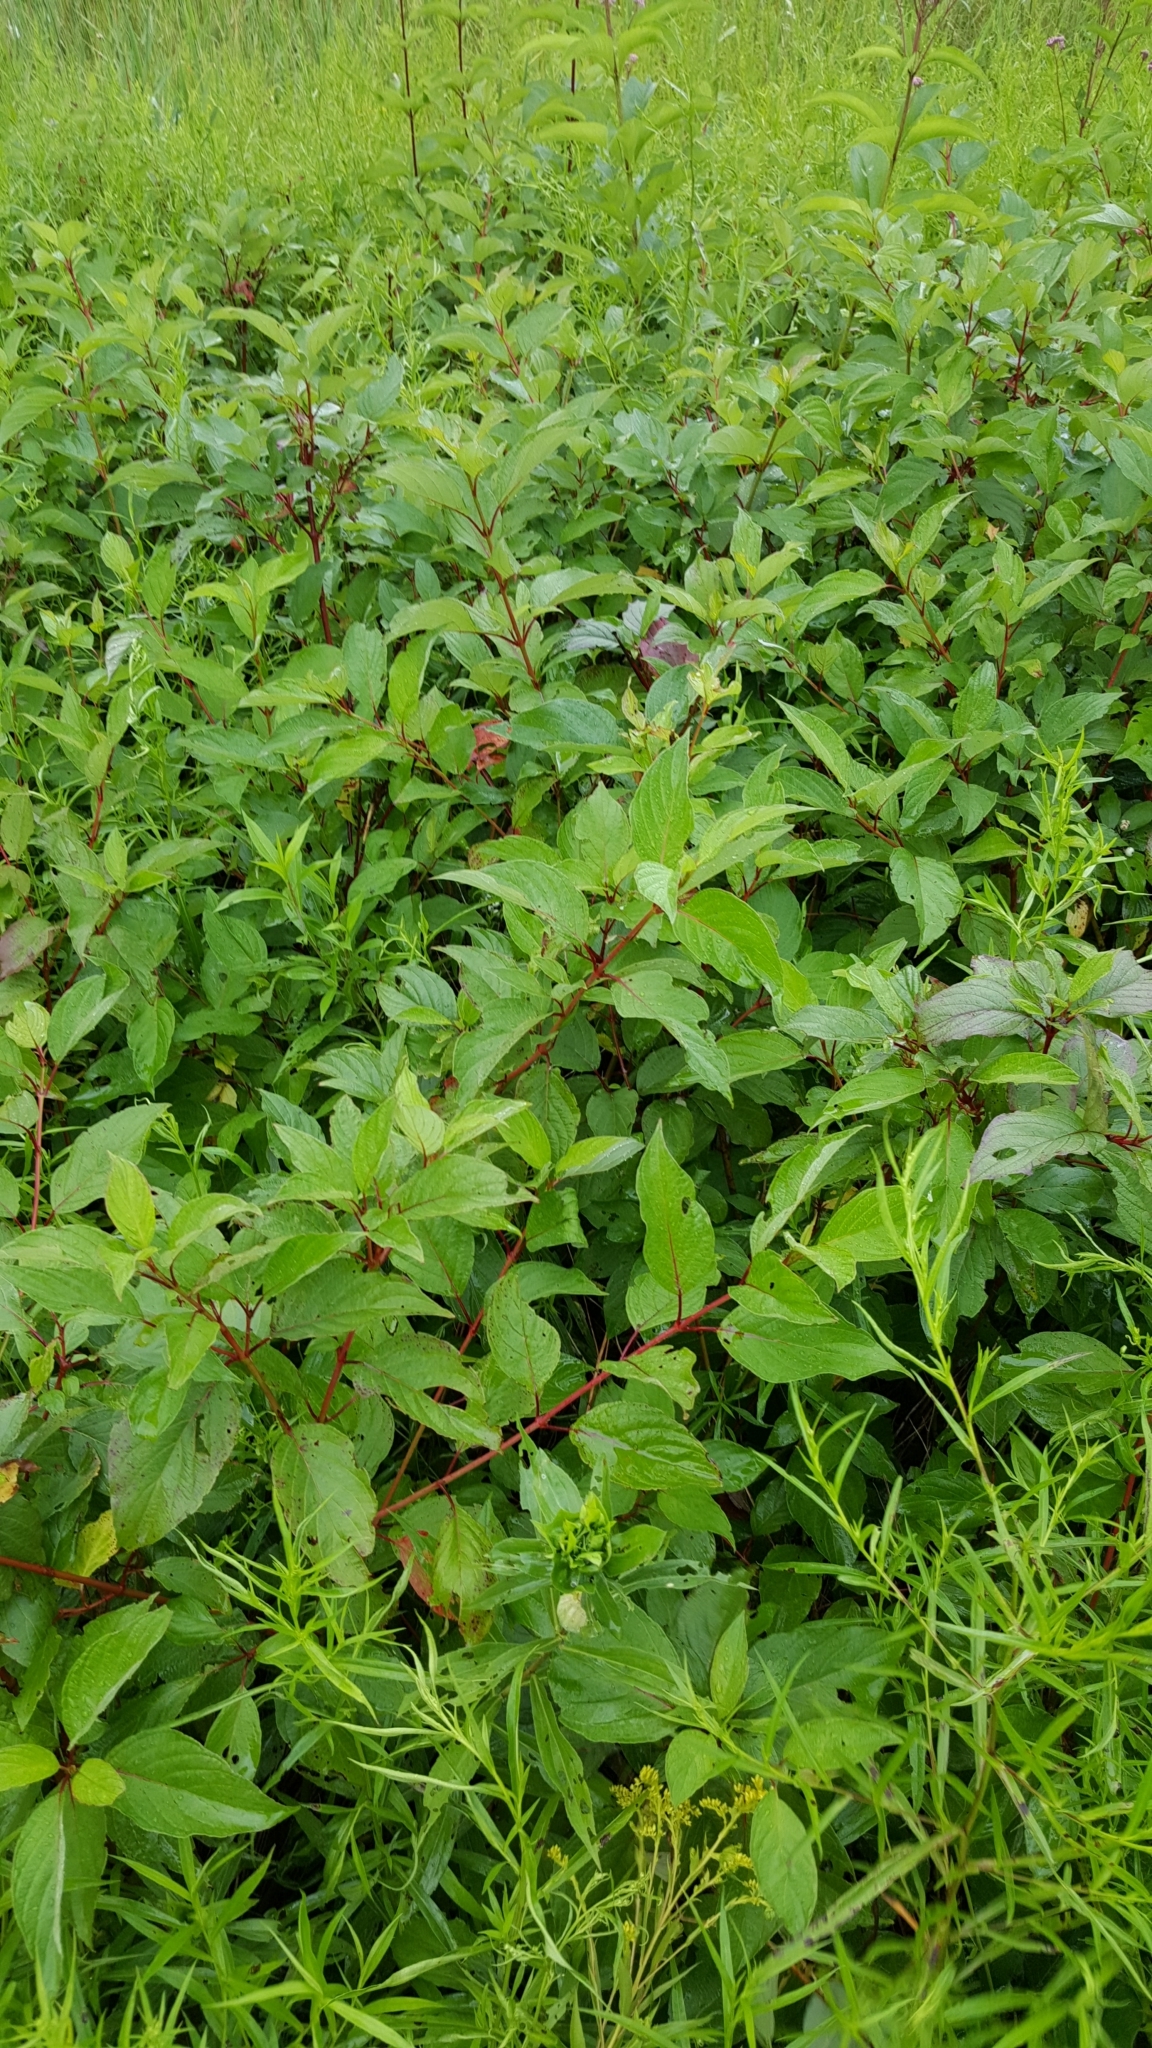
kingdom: Plantae
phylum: Tracheophyta
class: Magnoliopsida
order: Cornales
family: Cornaceae
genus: Cornus
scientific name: Cornus sericea
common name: Red-osier dogwood
